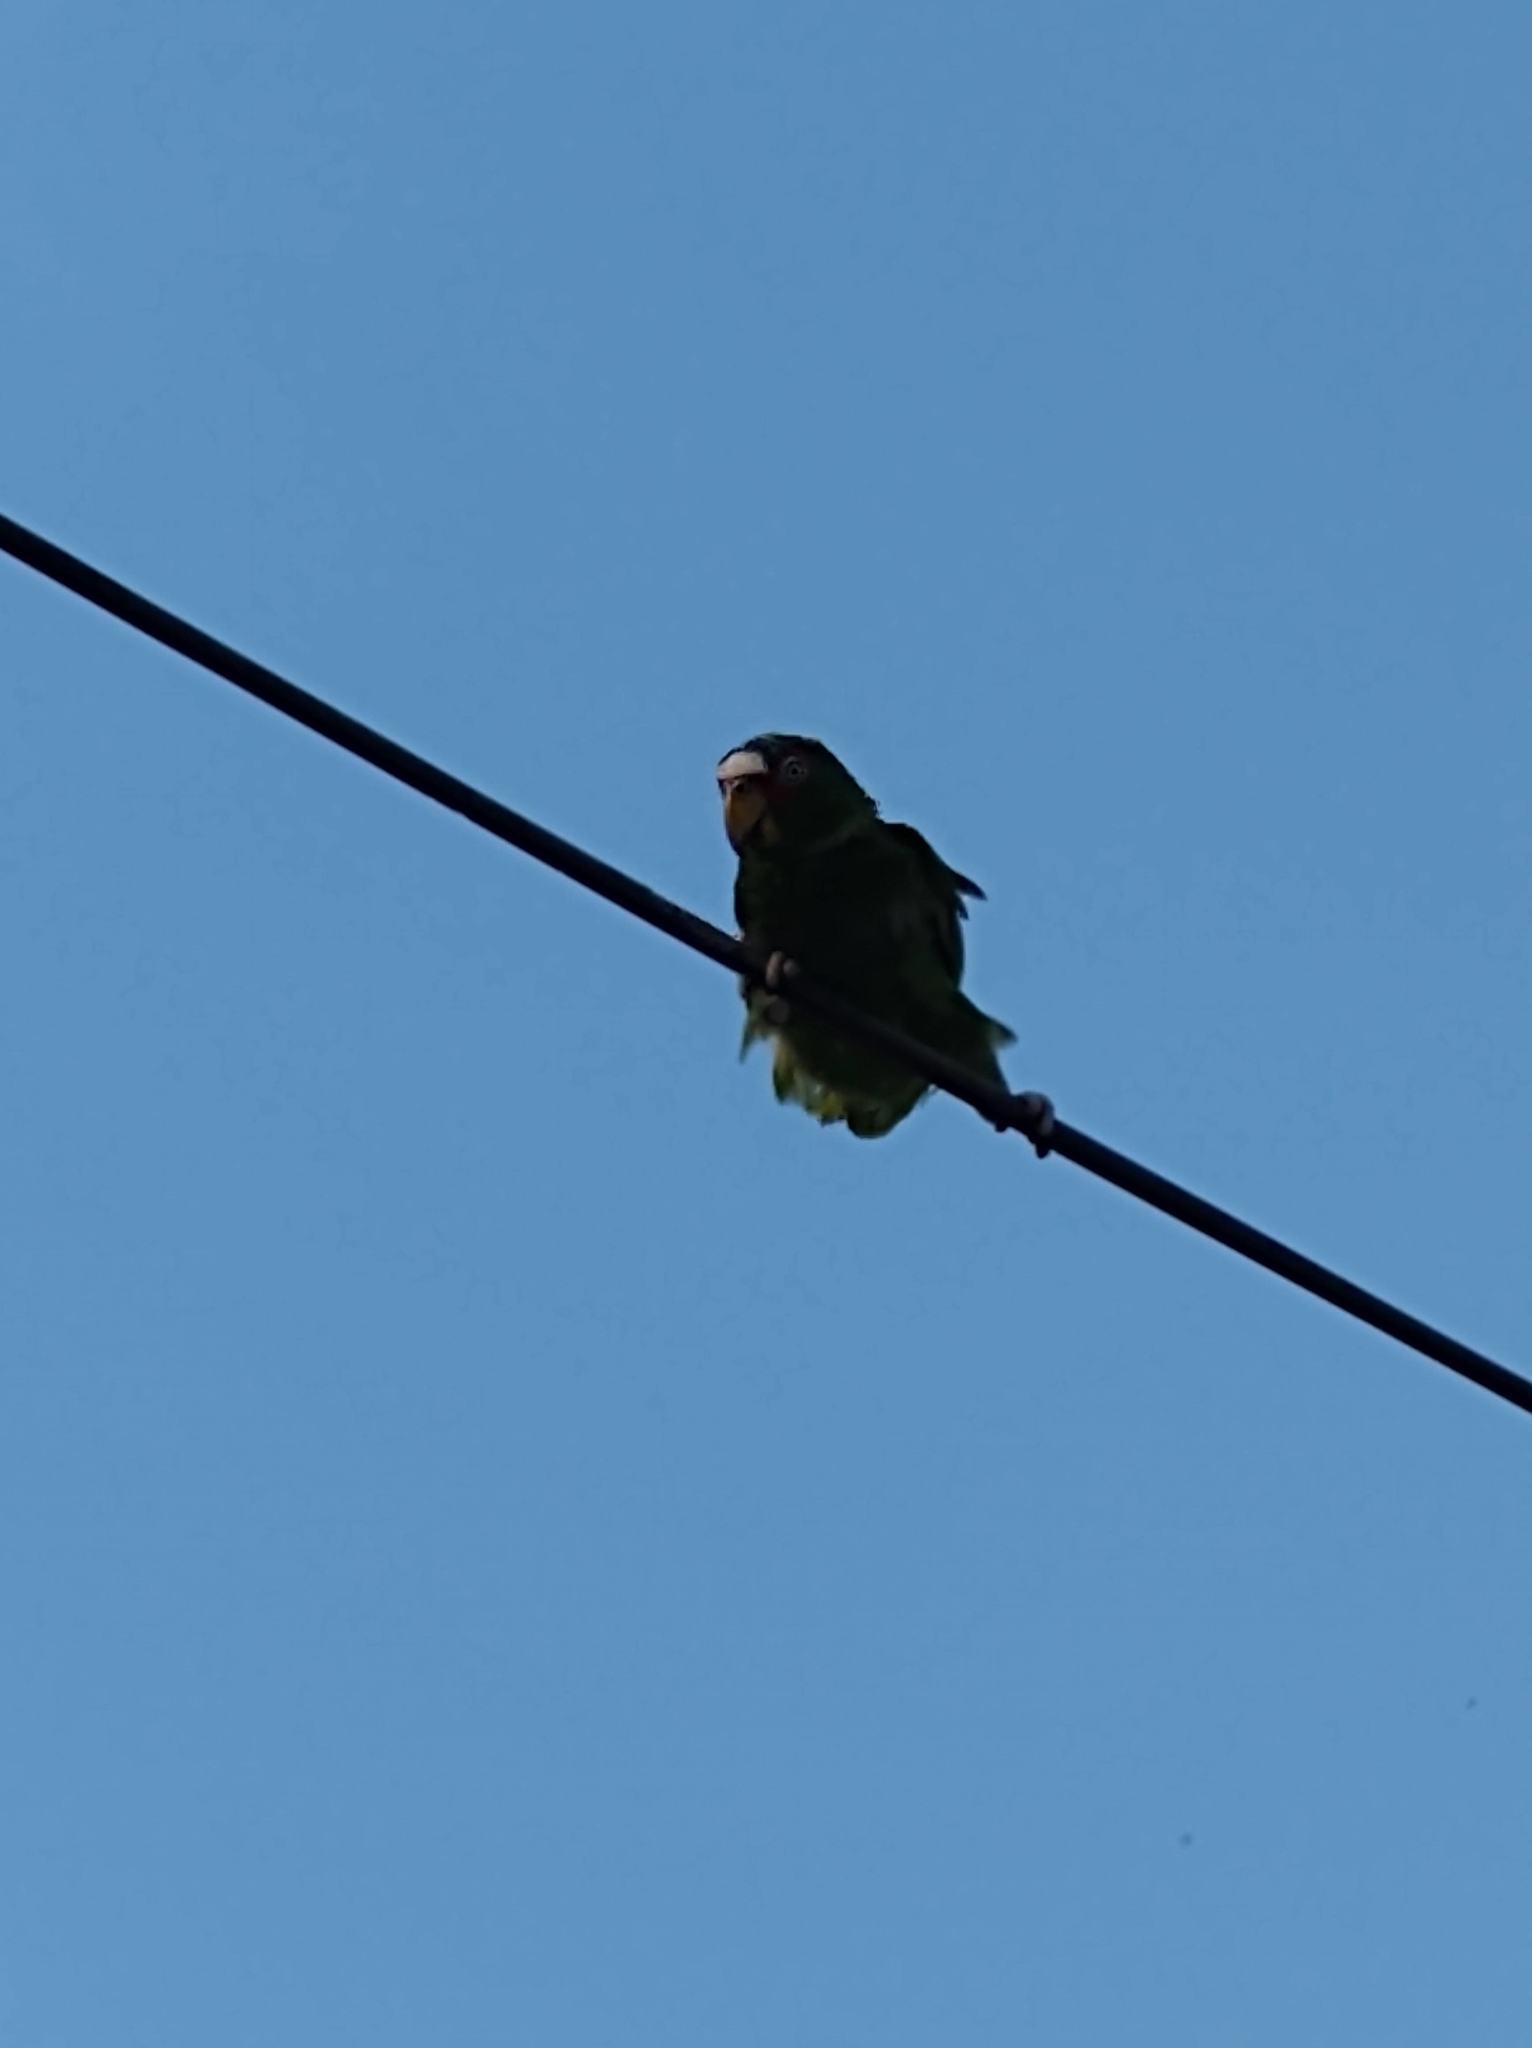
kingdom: Animalia
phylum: Chordata
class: Aves
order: Psittaciformes
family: Psittacidae
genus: Amazona
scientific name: Amazona albifrons
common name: White-fronted amazon
